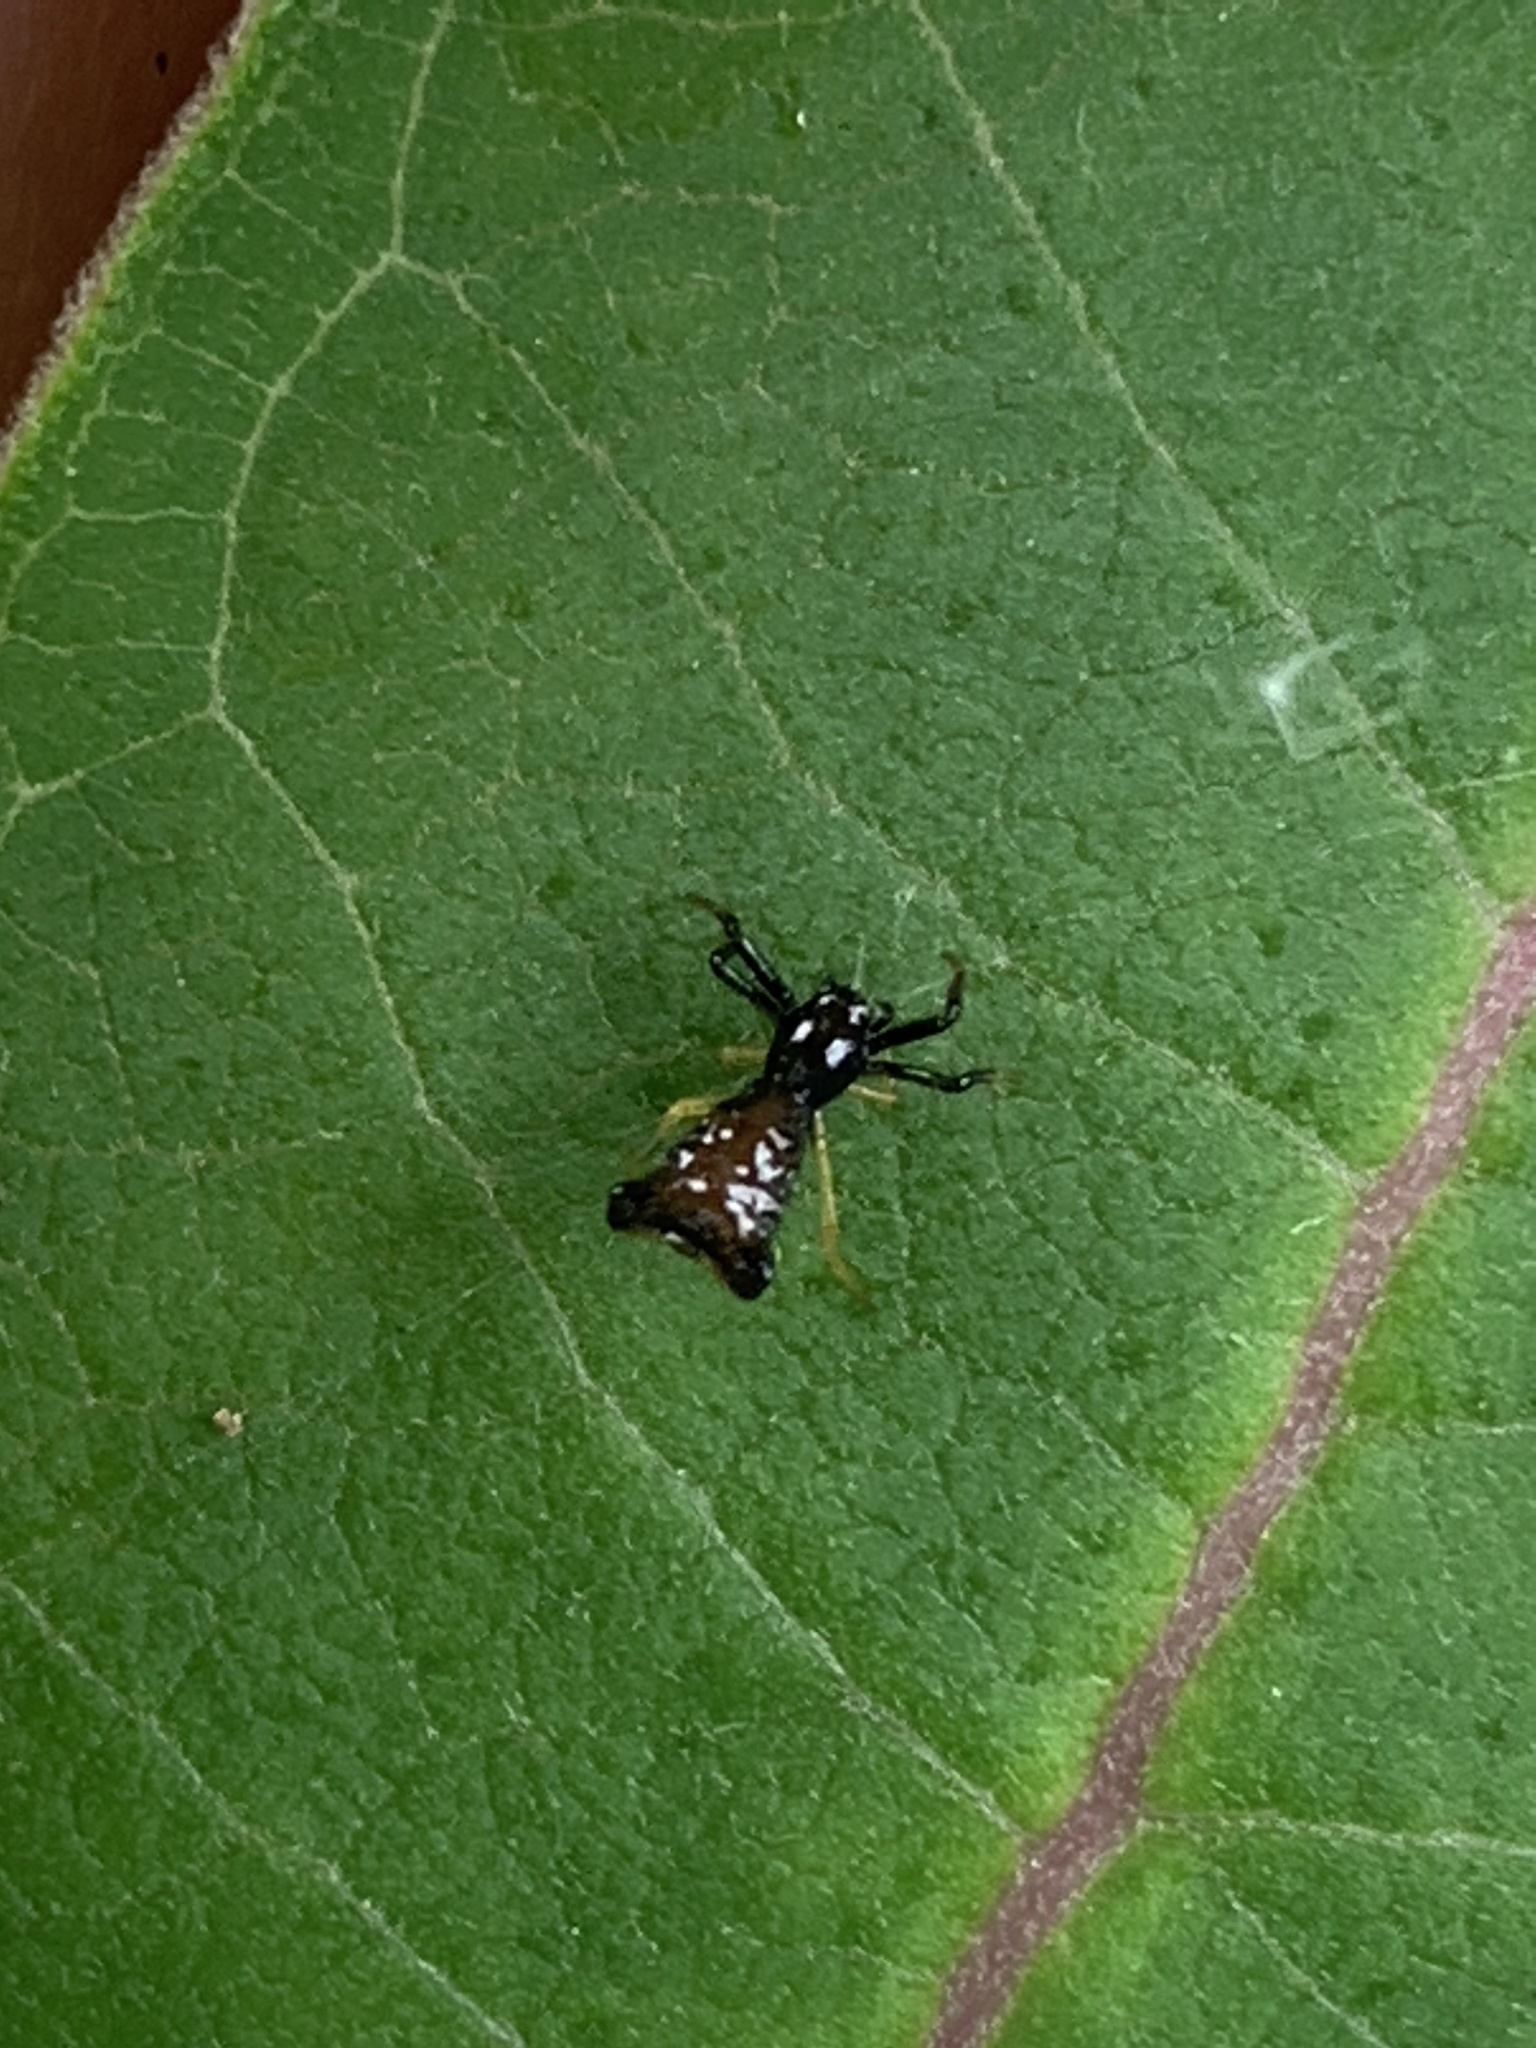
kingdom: Animalia
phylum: Arthropoda
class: Arachnida
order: Araneae
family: Araneidae
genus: Micrathena
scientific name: Micrathena sagittata
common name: Orb weavers
